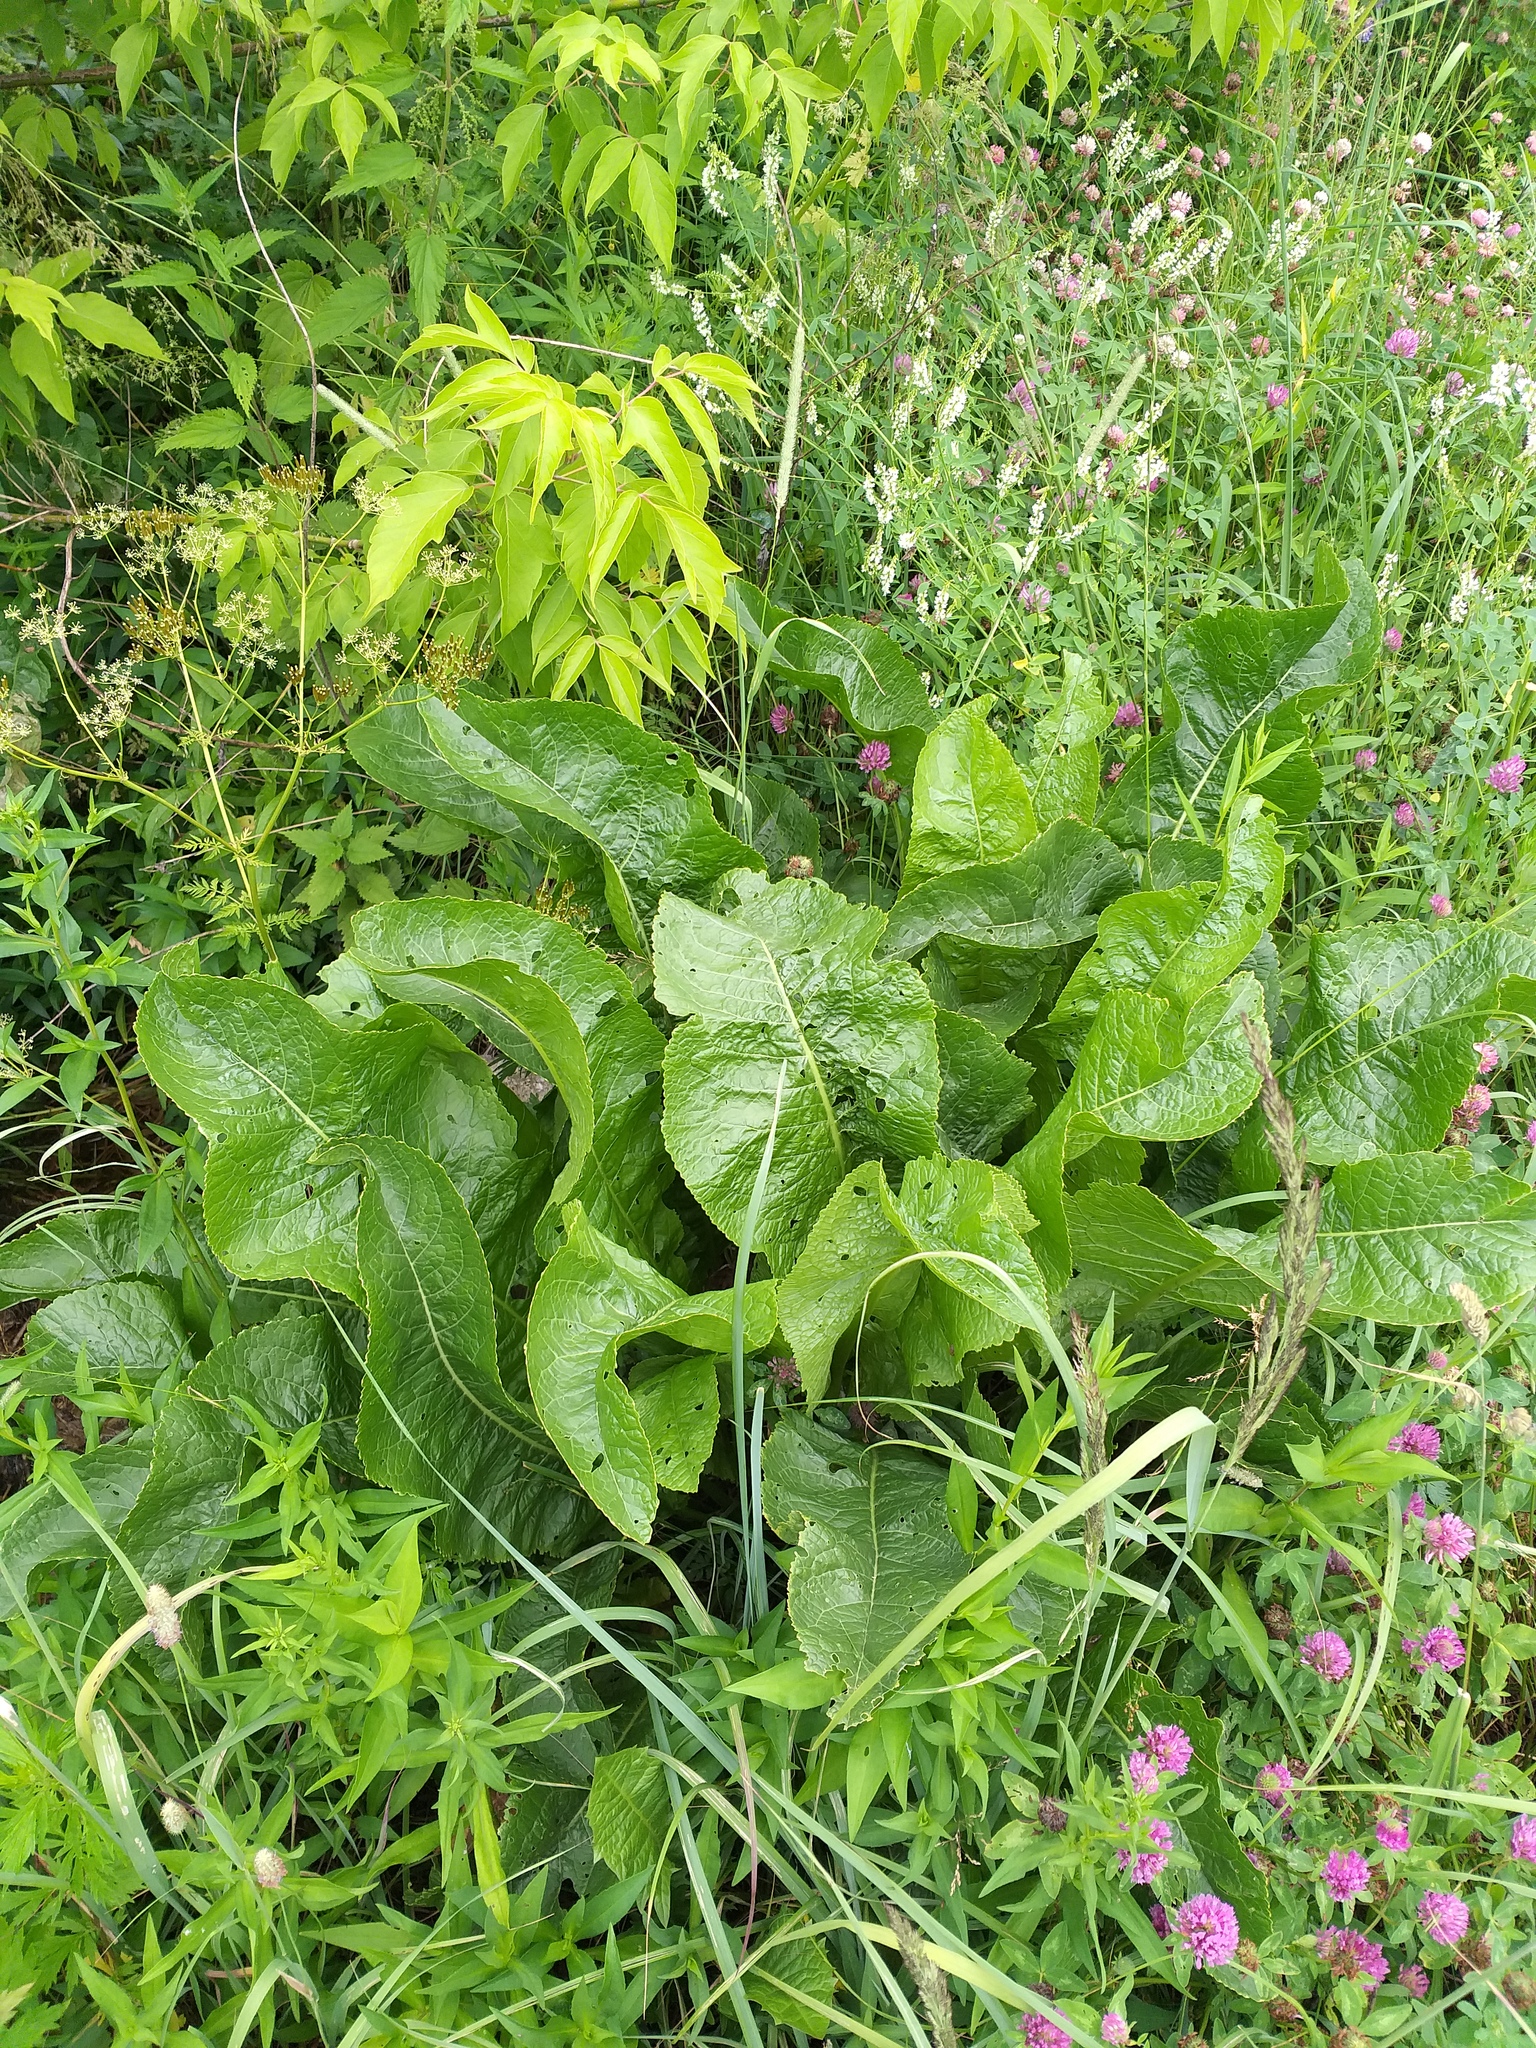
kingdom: Plantae
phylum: Tracheophyta
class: Magnoliopsida
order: Brassicales
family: Brassicaceae
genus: Armoracia
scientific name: Armoracia rusticana
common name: Horseradish
